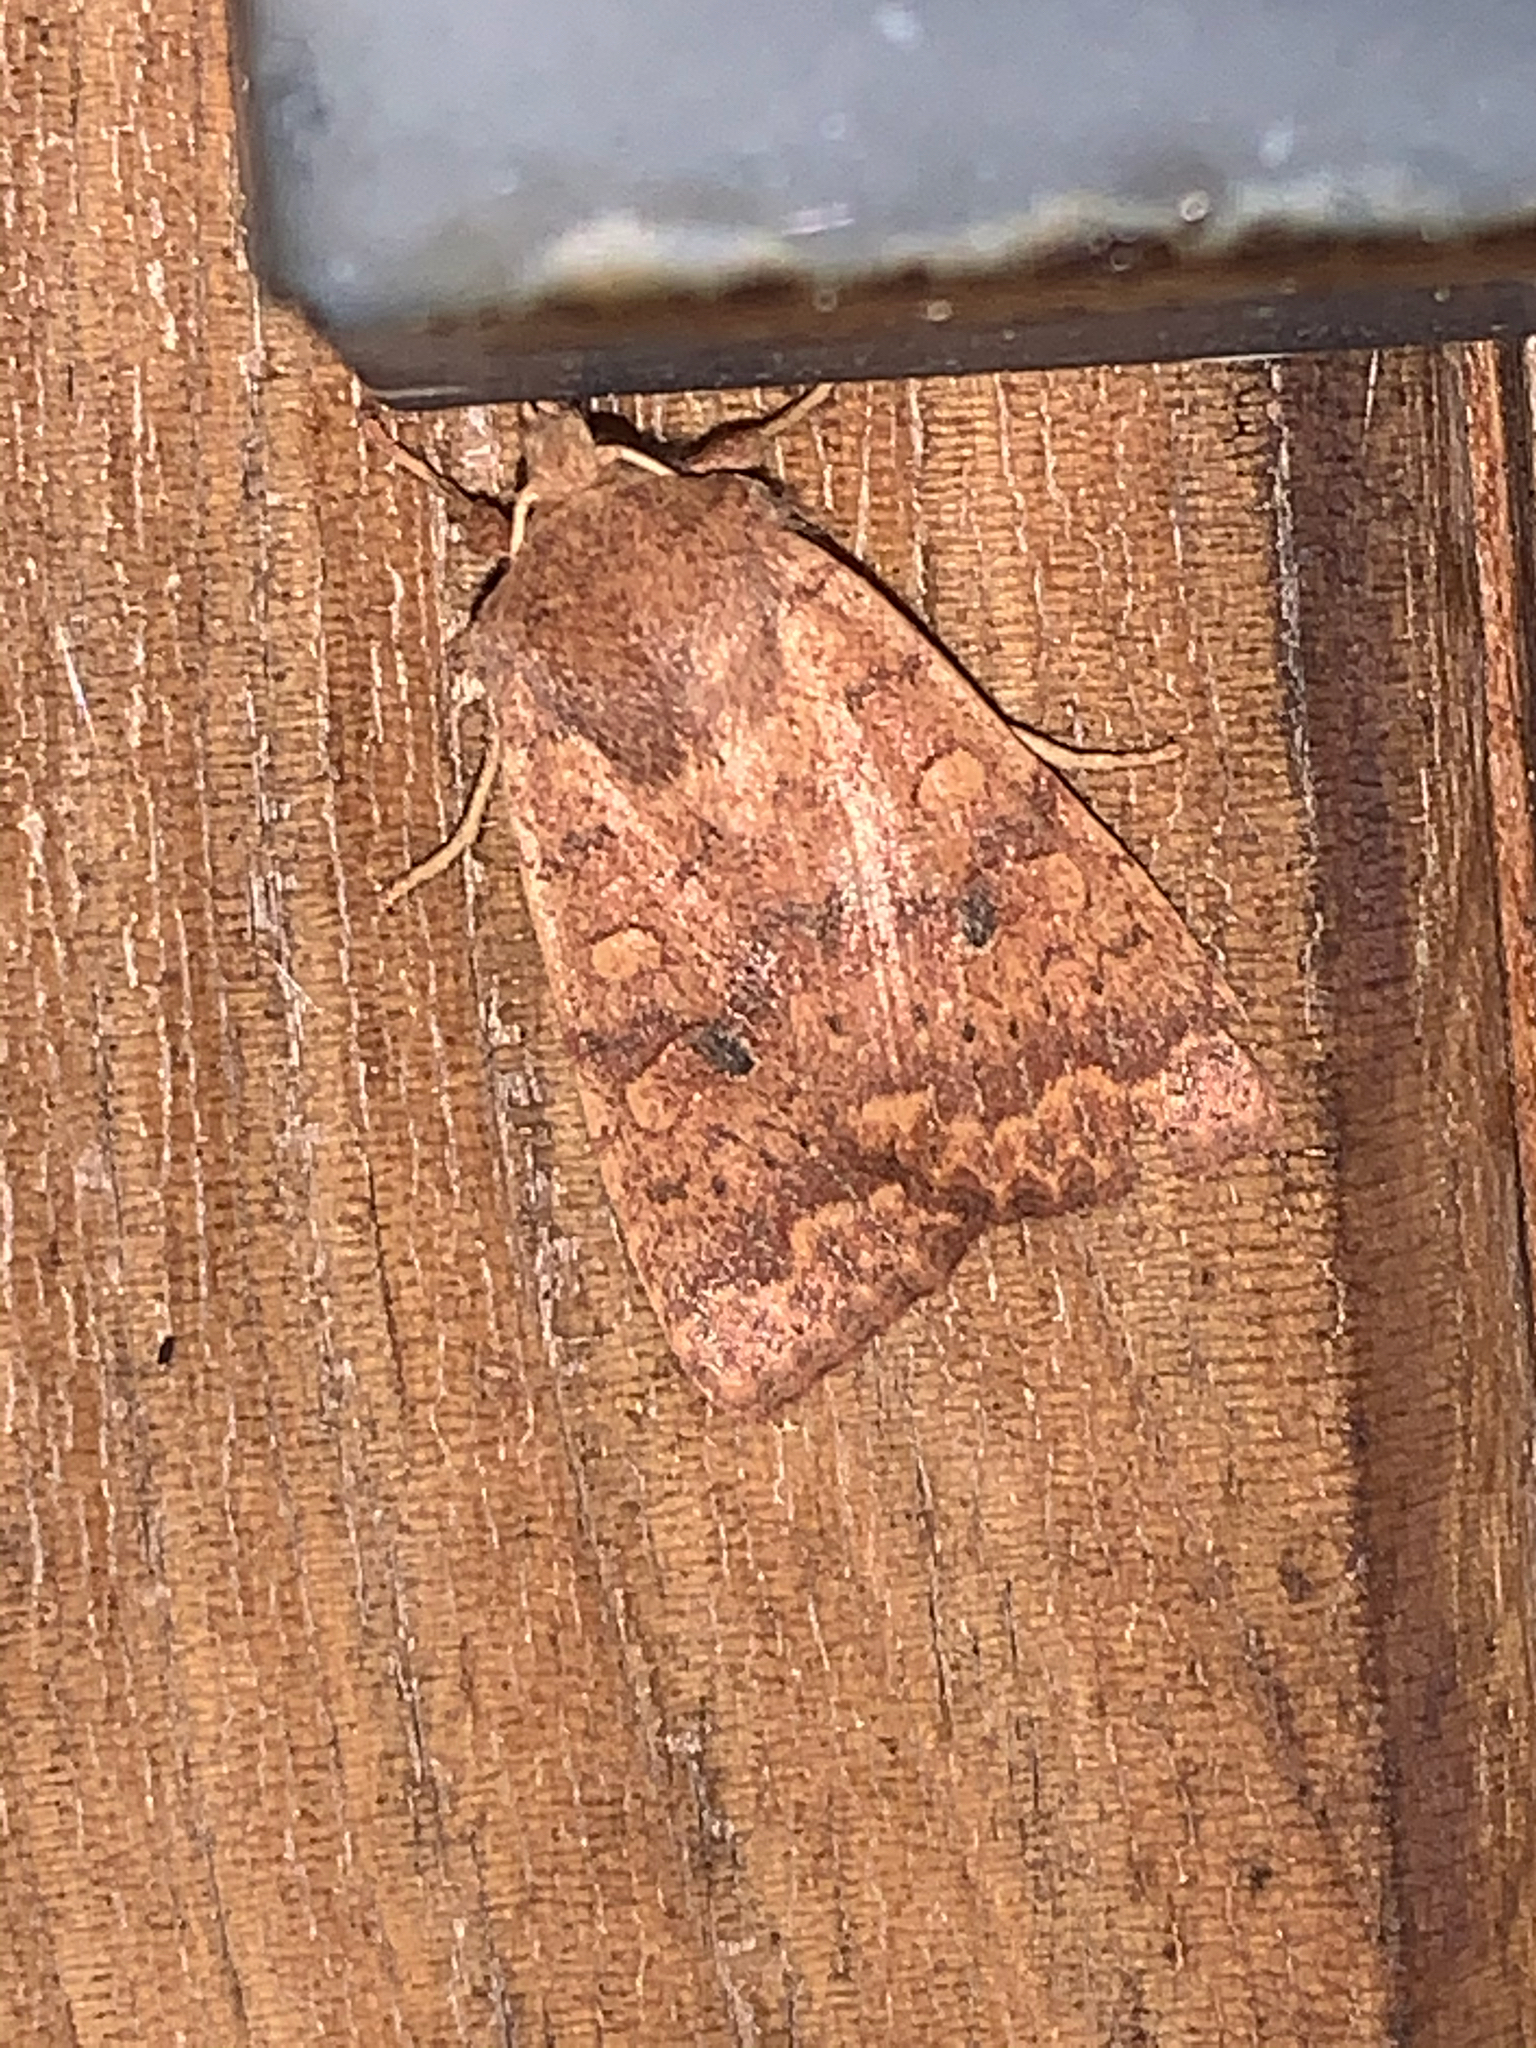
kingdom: Animalia
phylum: Arthropoda
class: Insecta
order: Lepidoptera
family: Noctuidae
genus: Agrochola
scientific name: Agrochola bicolorago
